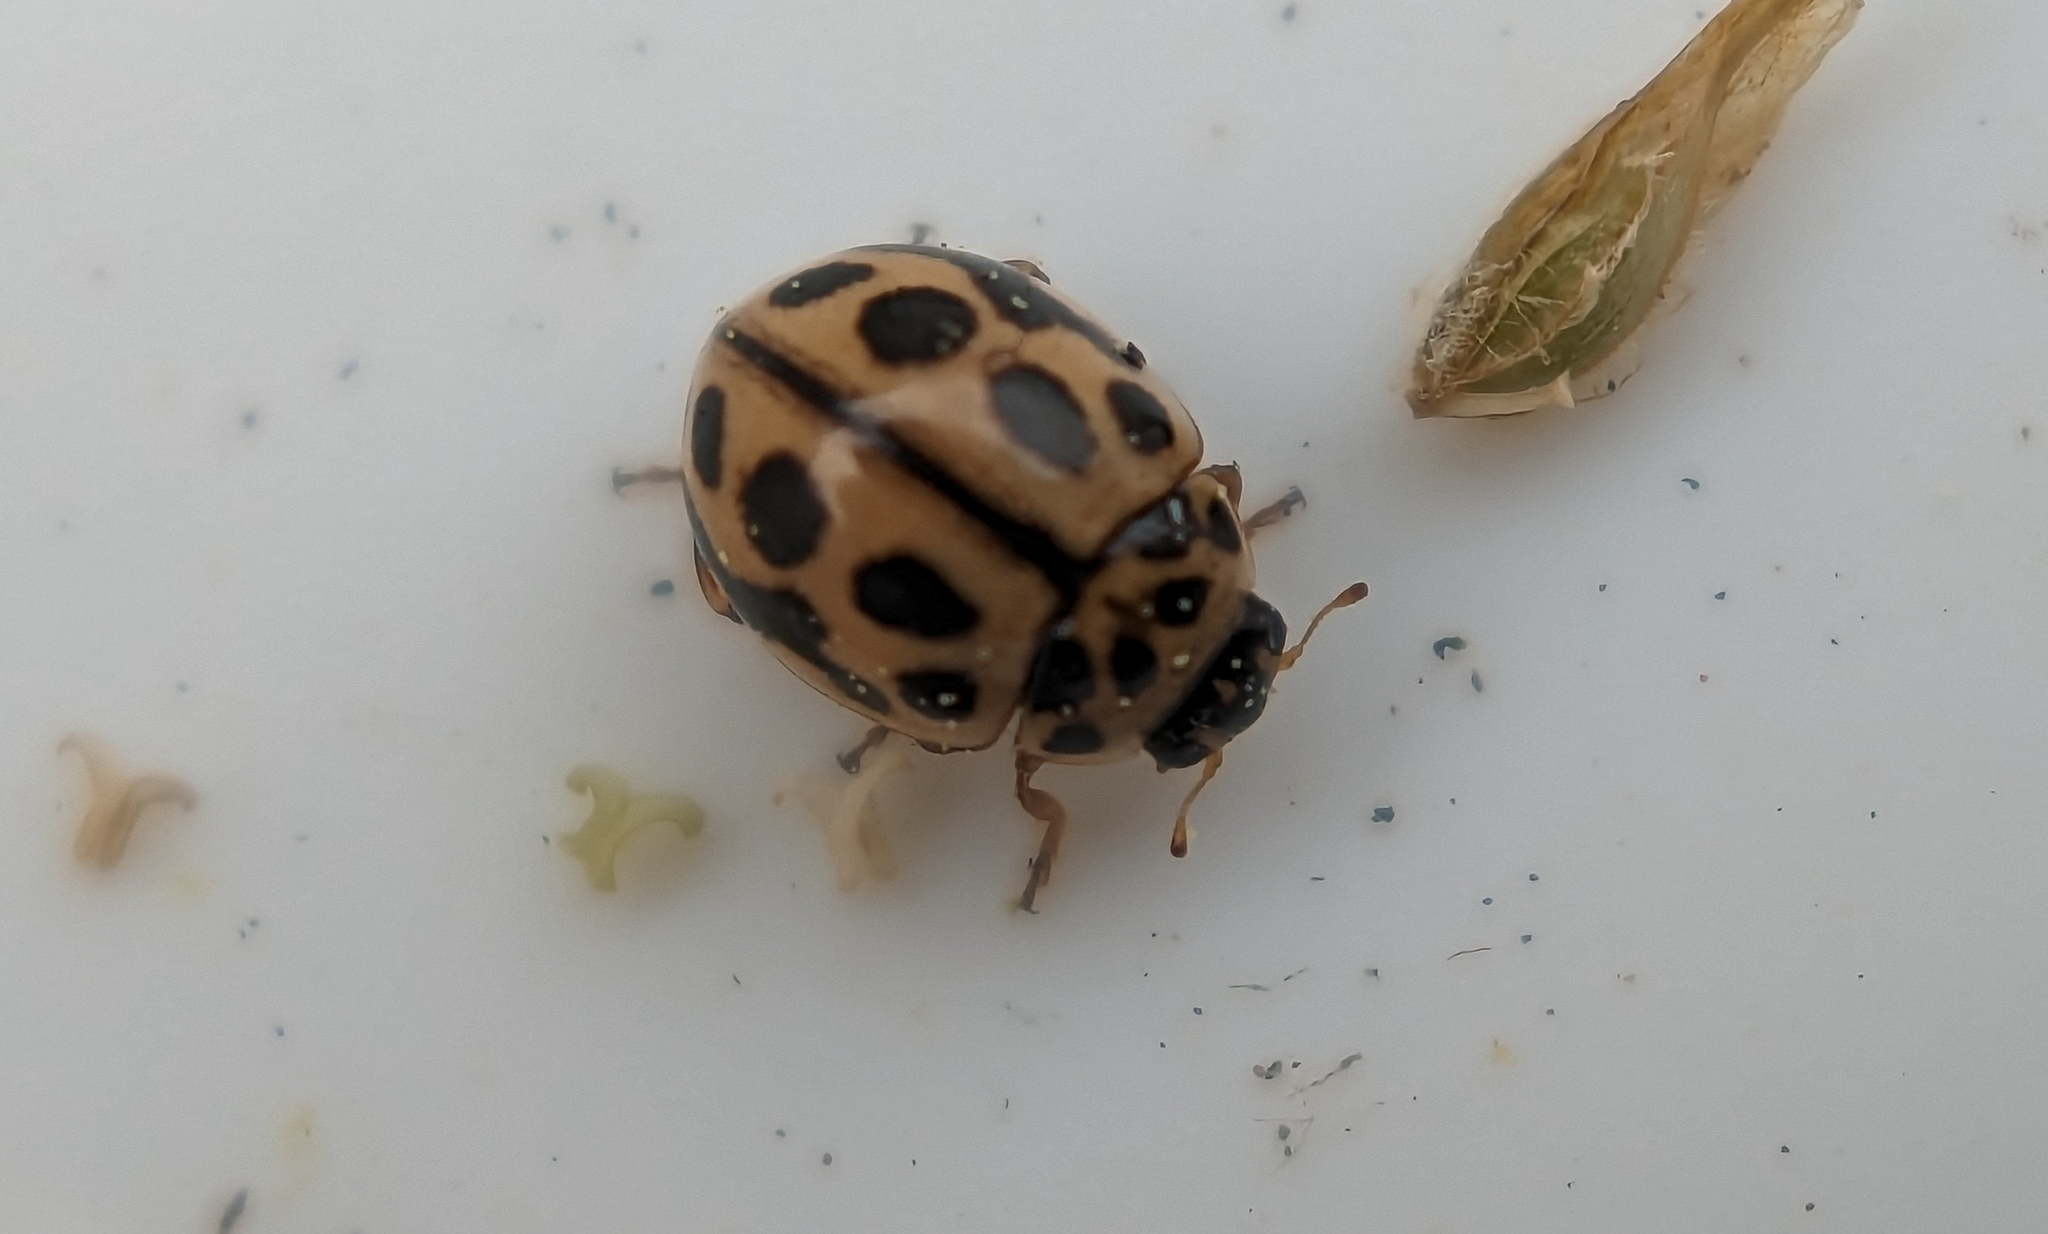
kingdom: Animalia
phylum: Arthropoda
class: Insecta
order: Coleoptera
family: Coccinellidae
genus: Tytthaspis
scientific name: Tytthaspis sedecimpunctata
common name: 16-spot ladybird
